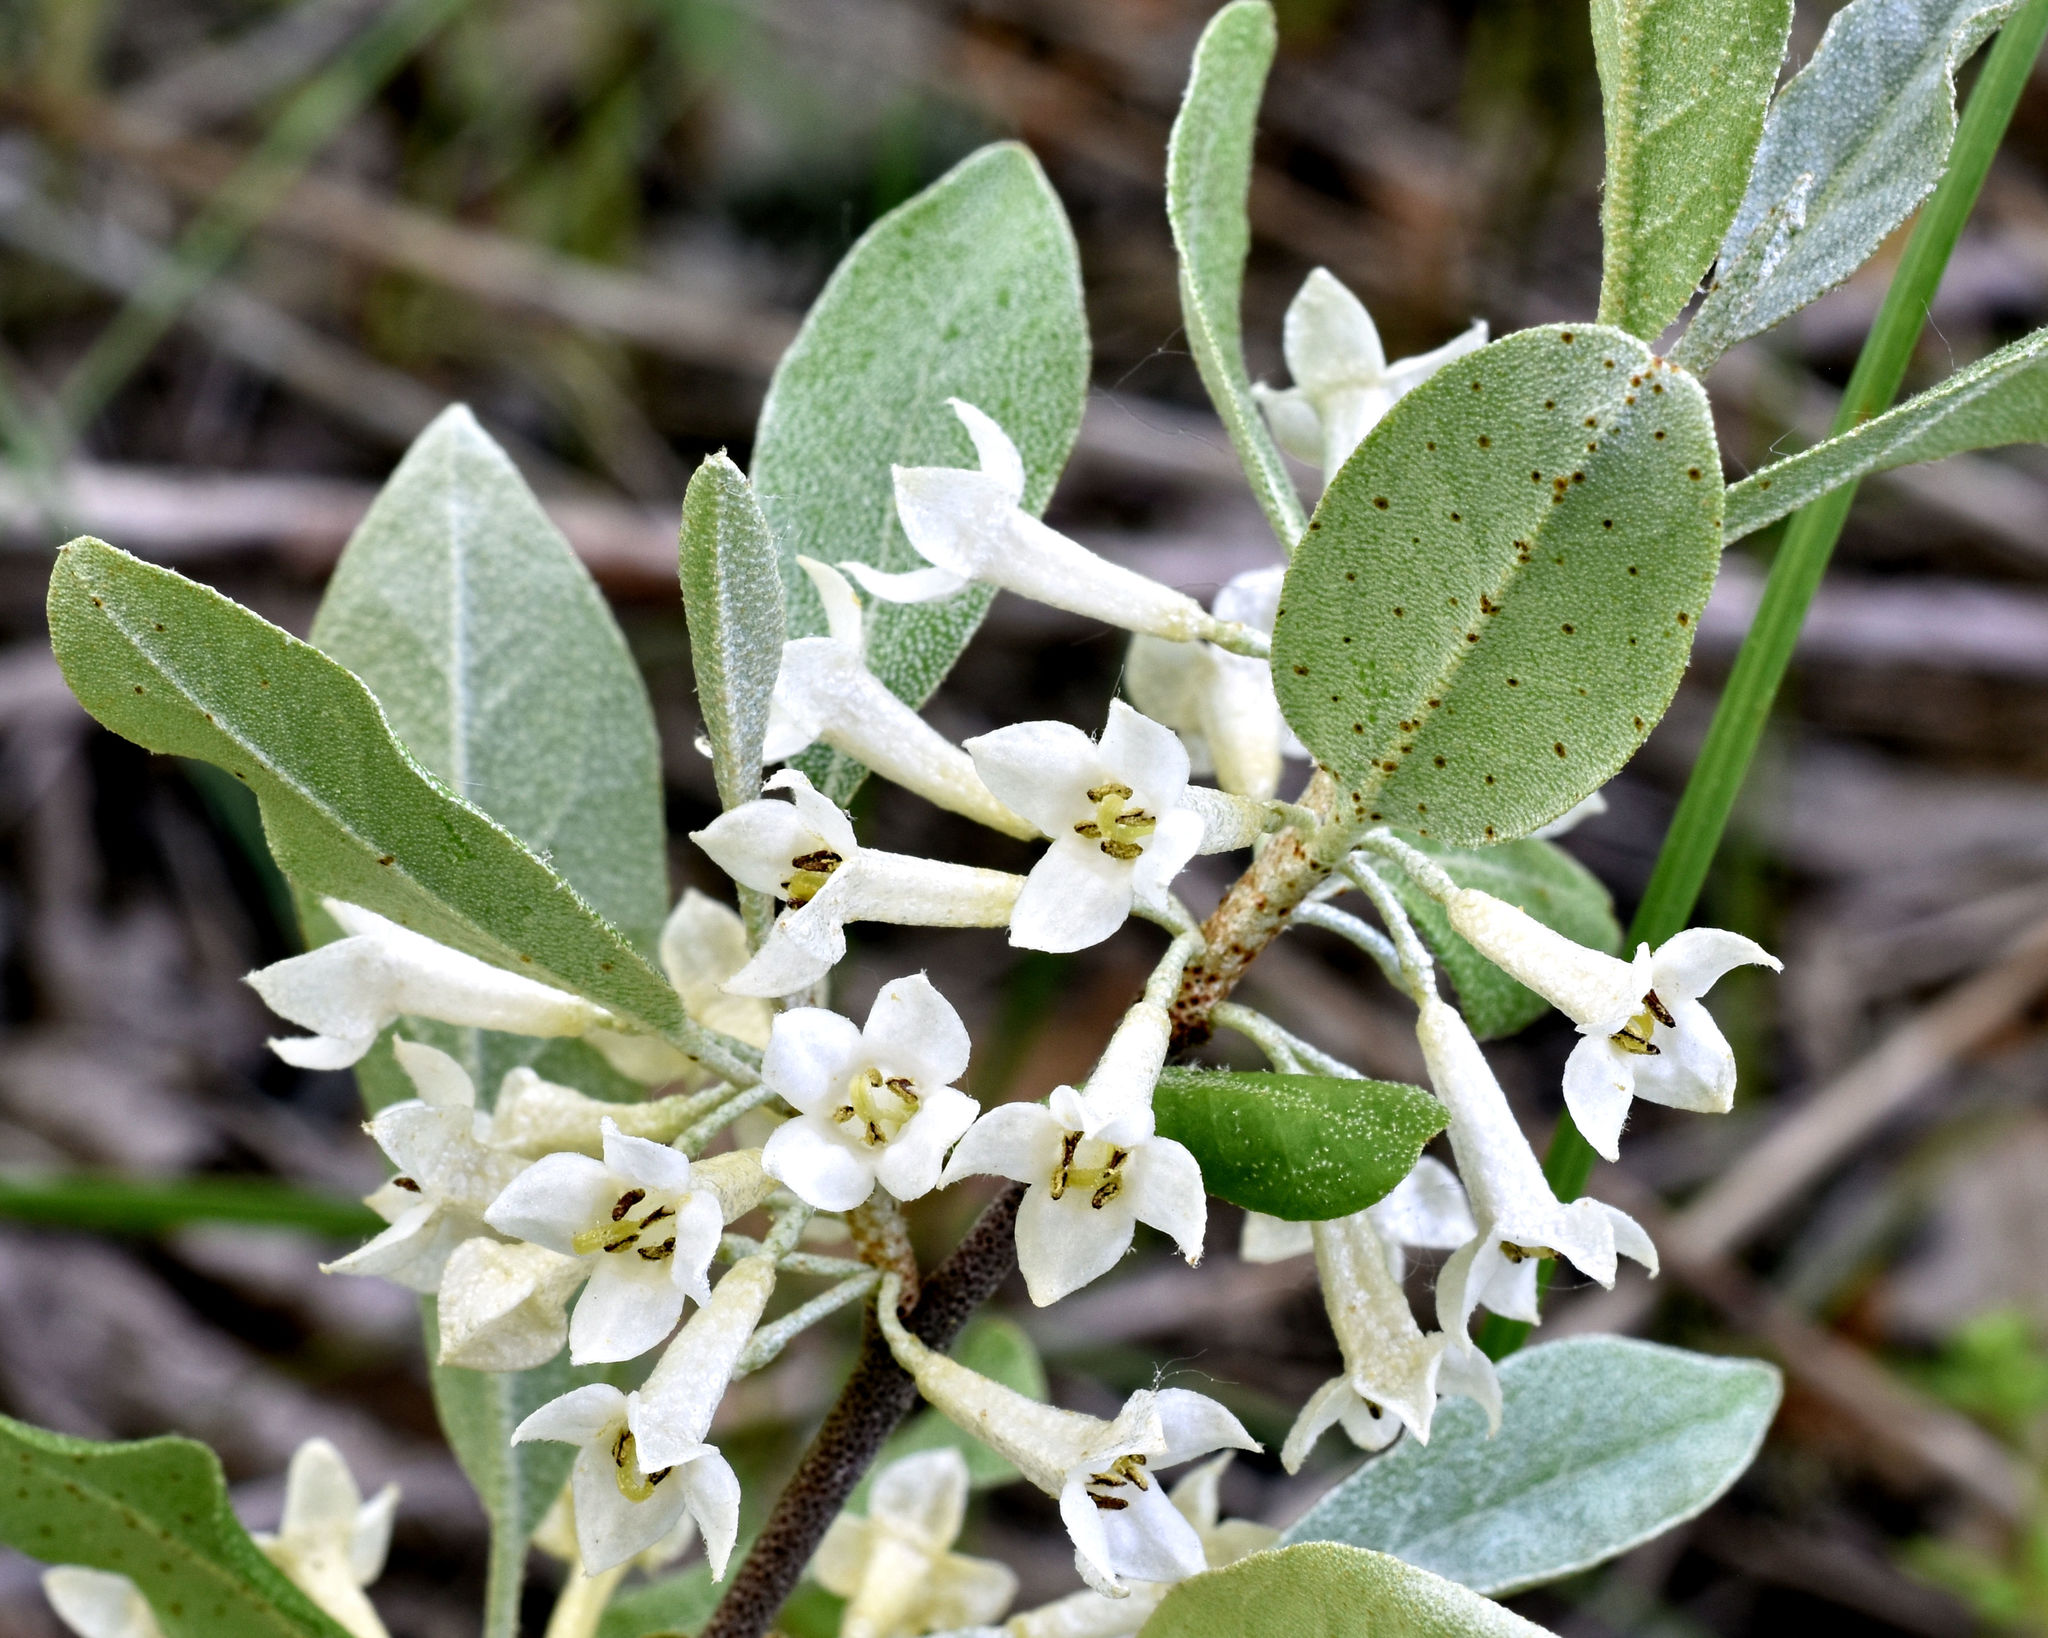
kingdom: Plantae
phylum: Tracheophyta
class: Magnoliopsida
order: Rosales
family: Elaeagnaceae
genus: Elaeagnus
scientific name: Elaeagnus umbellata
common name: Autumn olive
